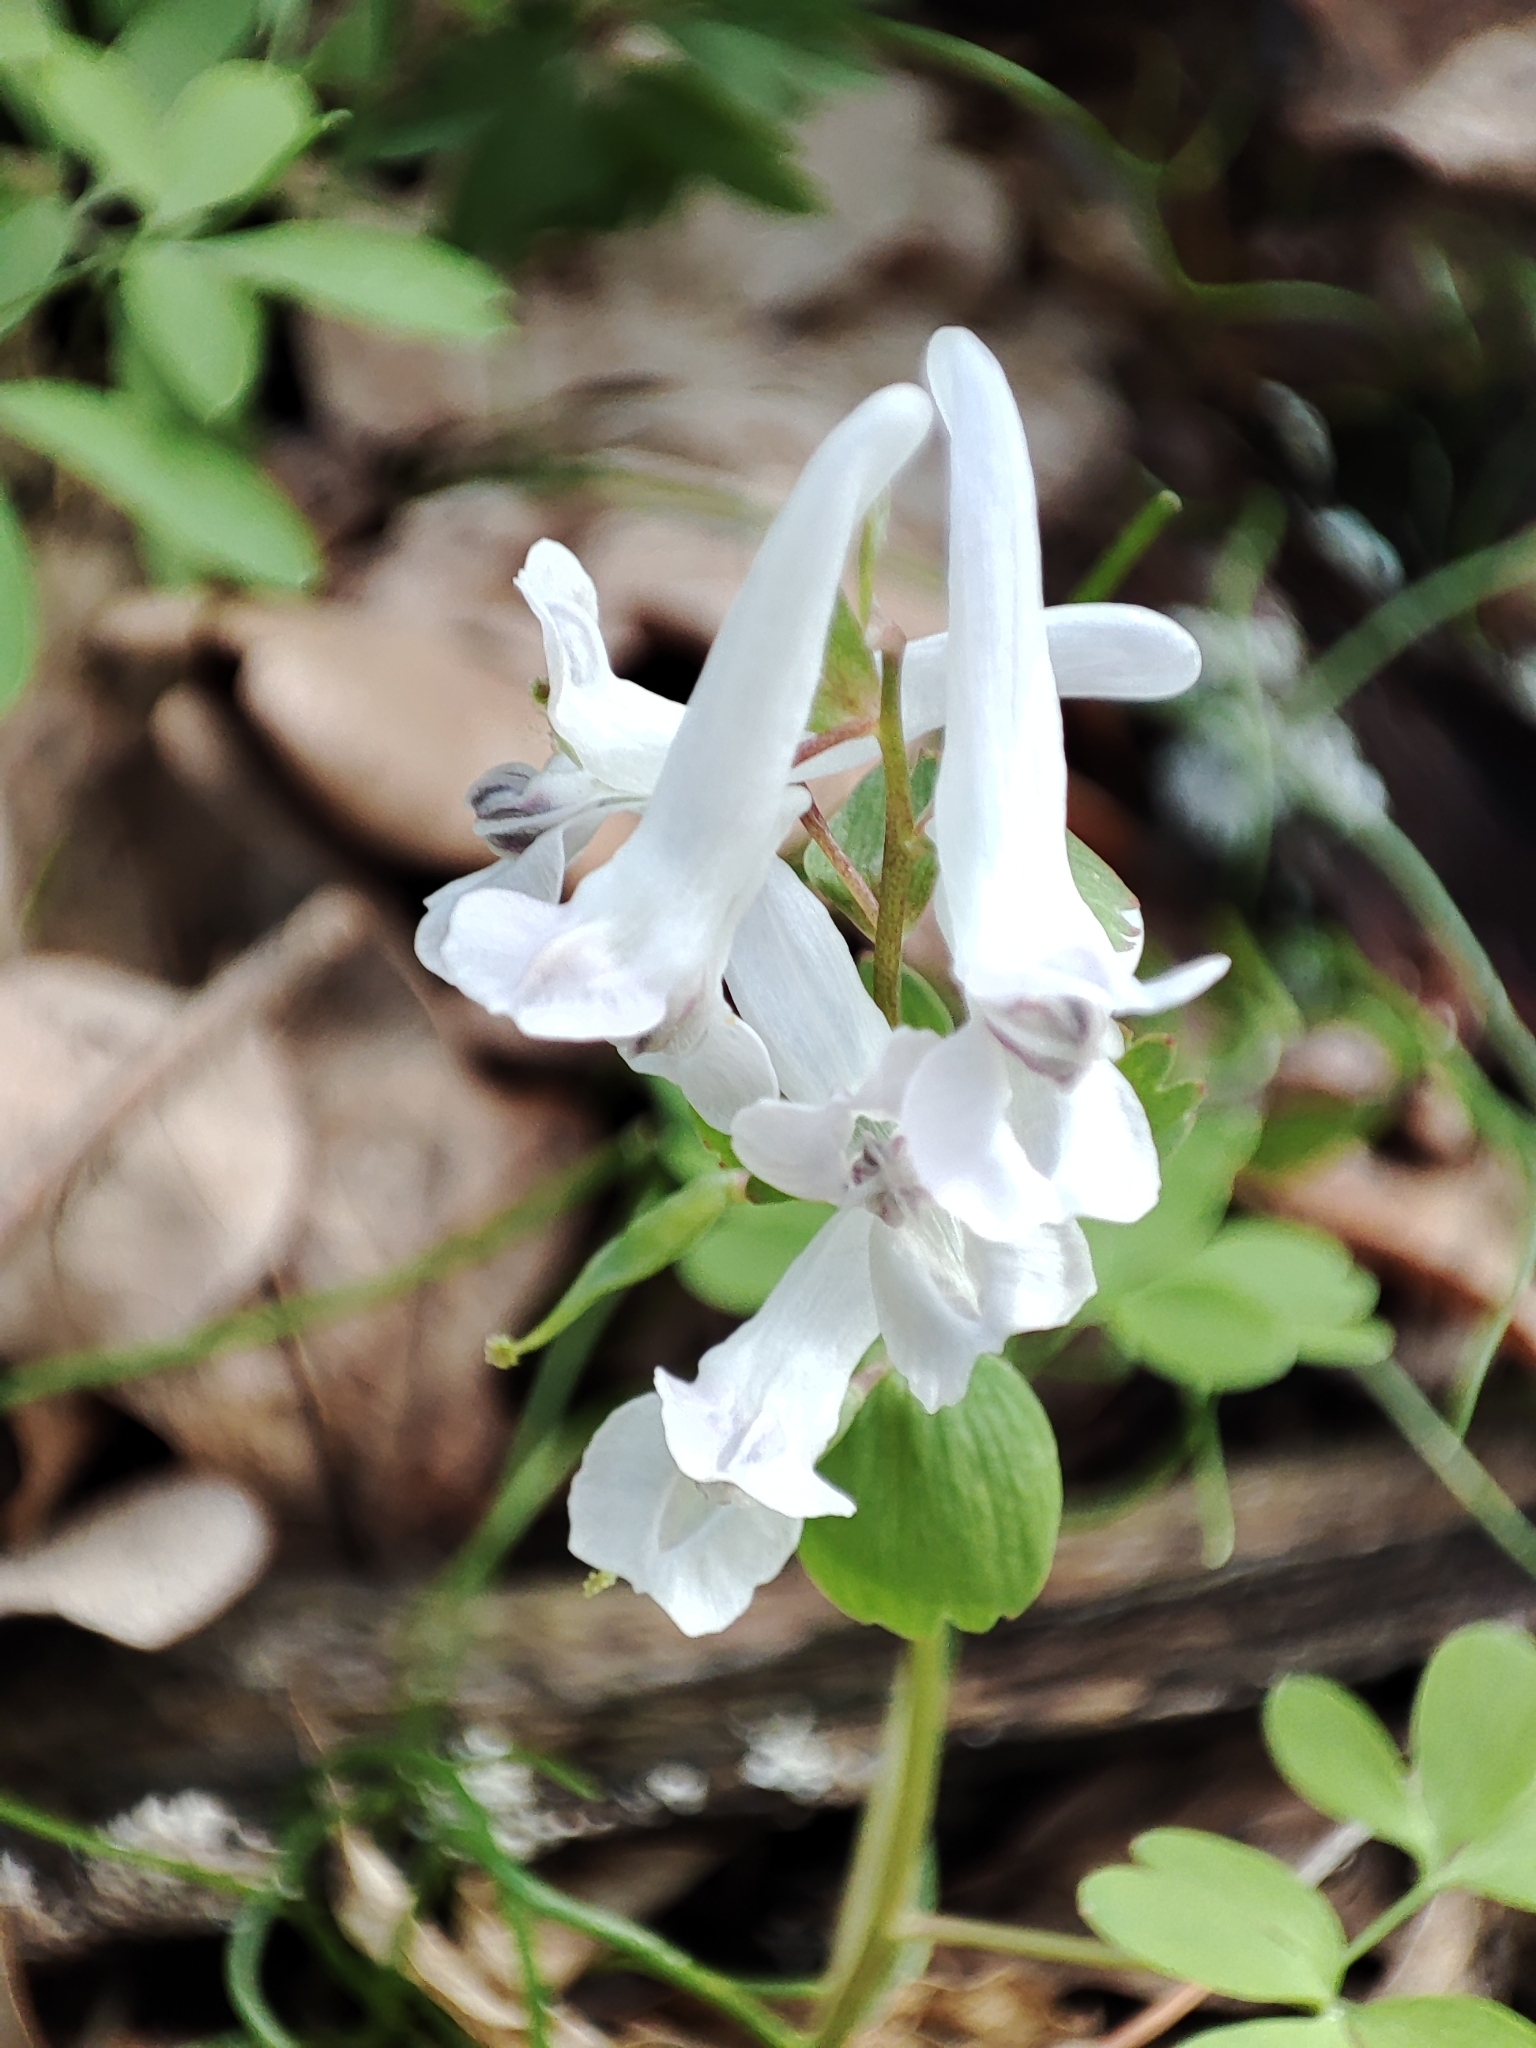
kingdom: Plantae
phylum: Tracheophyta
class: Magnoliopsida
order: Ranunculales
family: Papaveraceae
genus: Corydalis
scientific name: Corydalis solida
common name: Bird-in-a-bush
